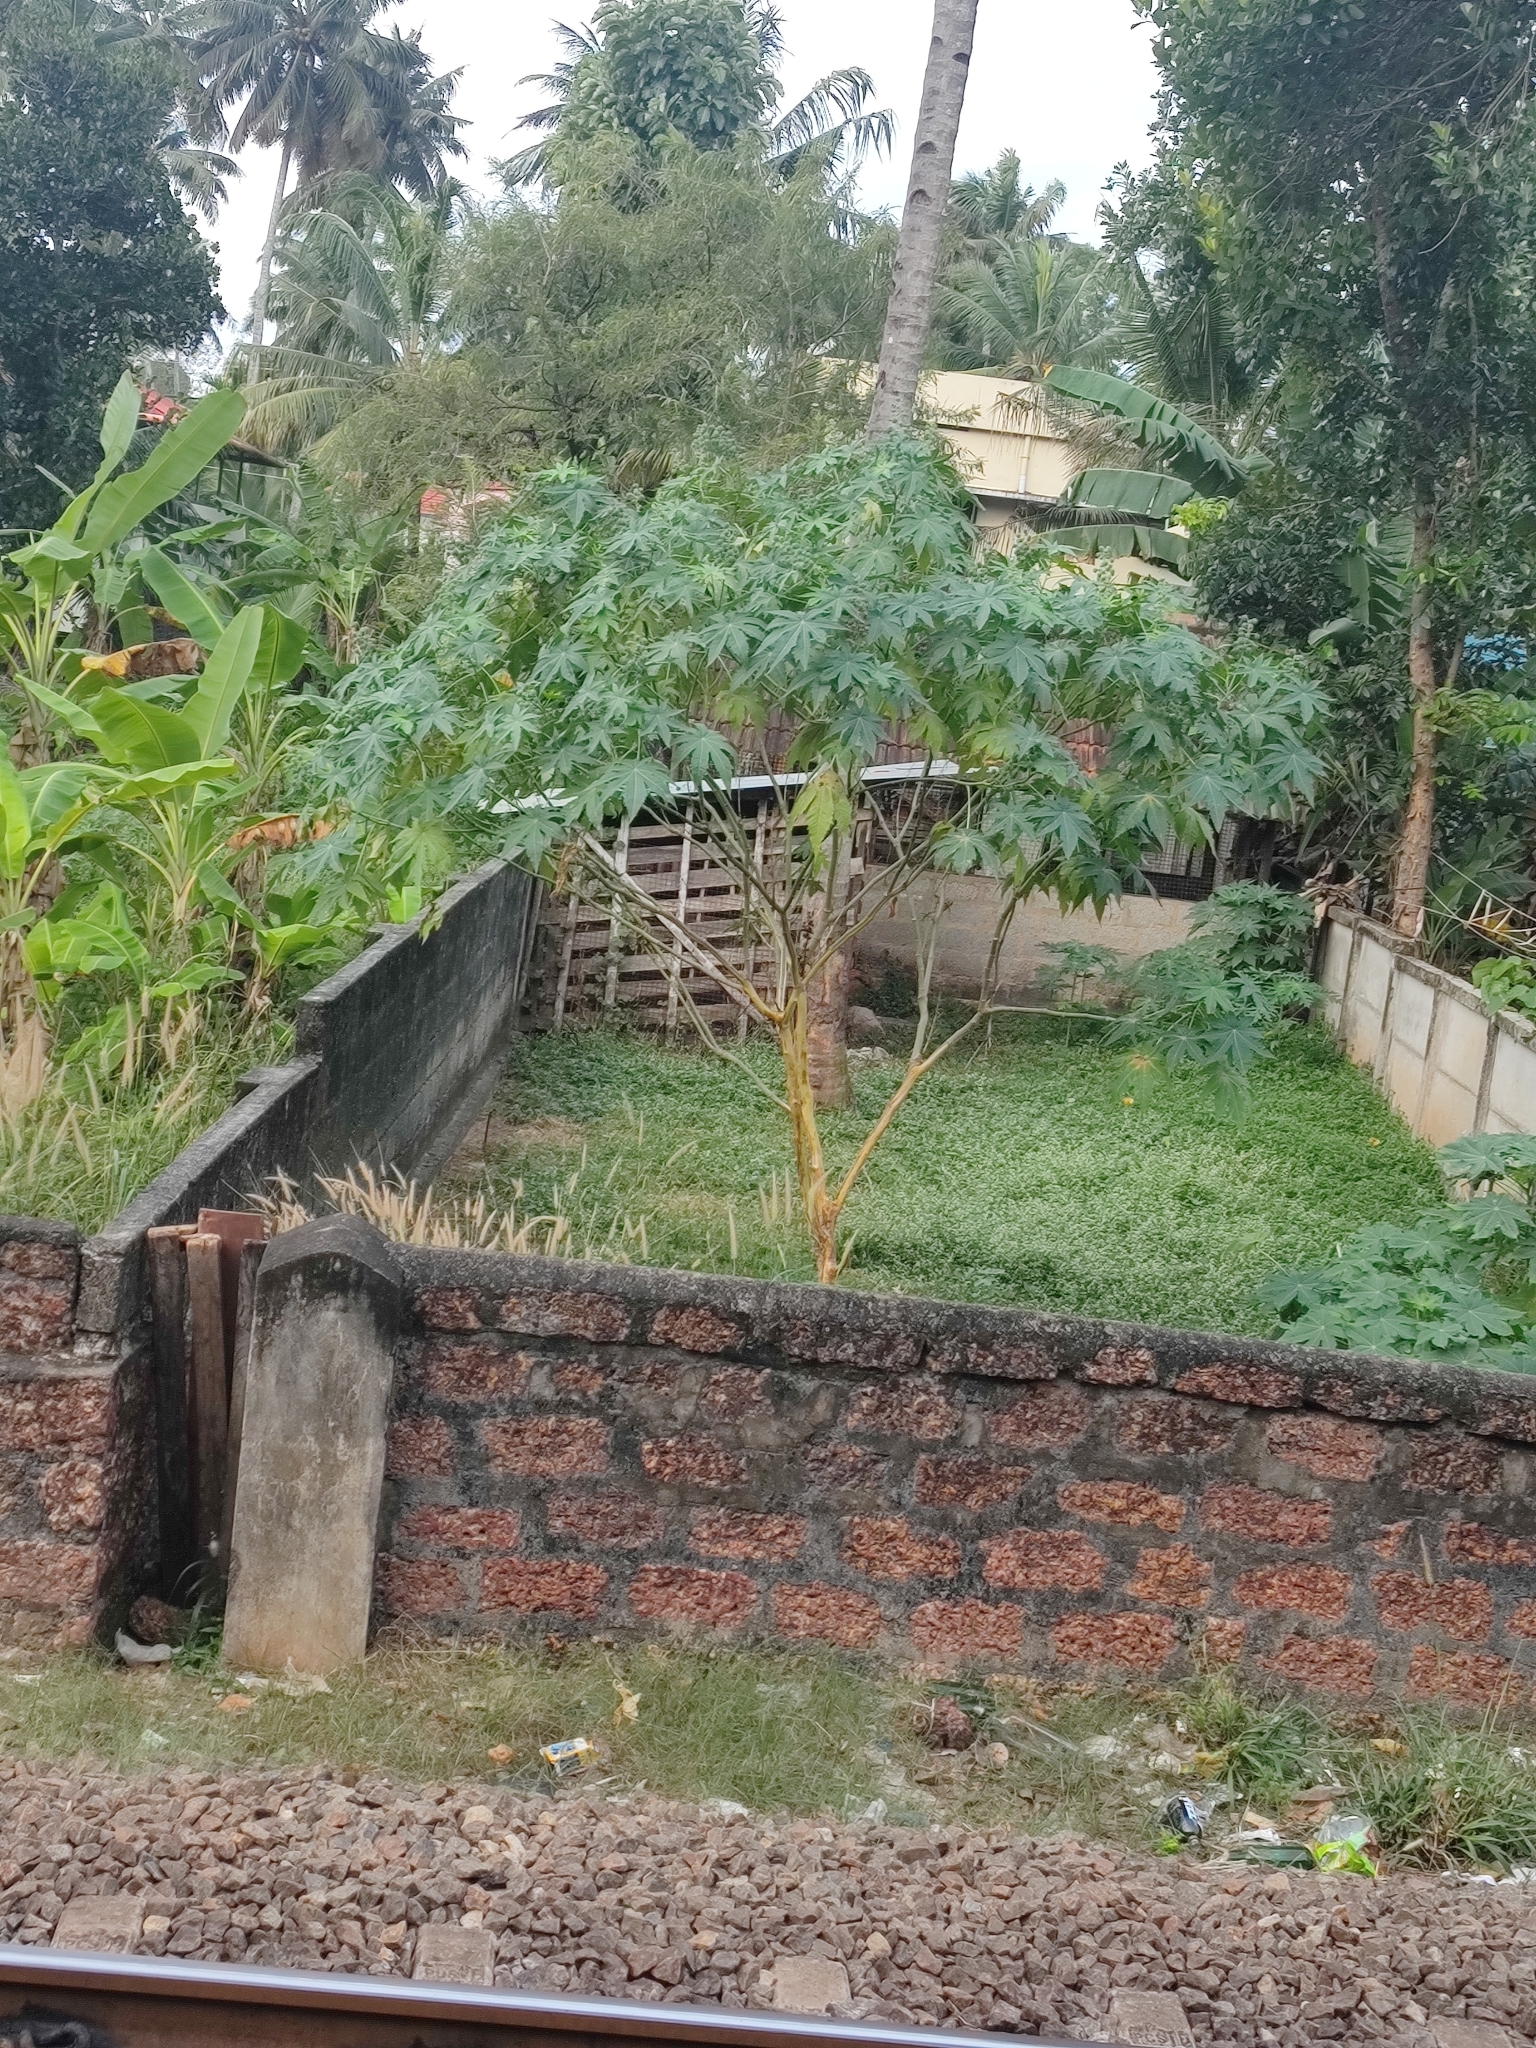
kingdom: Plantae
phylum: Tracheophyta
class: Magnoliopsida
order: Malpighiales
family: Euphorbiaceae
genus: Ricinus
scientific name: Ricinus communis
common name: Castor-oil-plant
